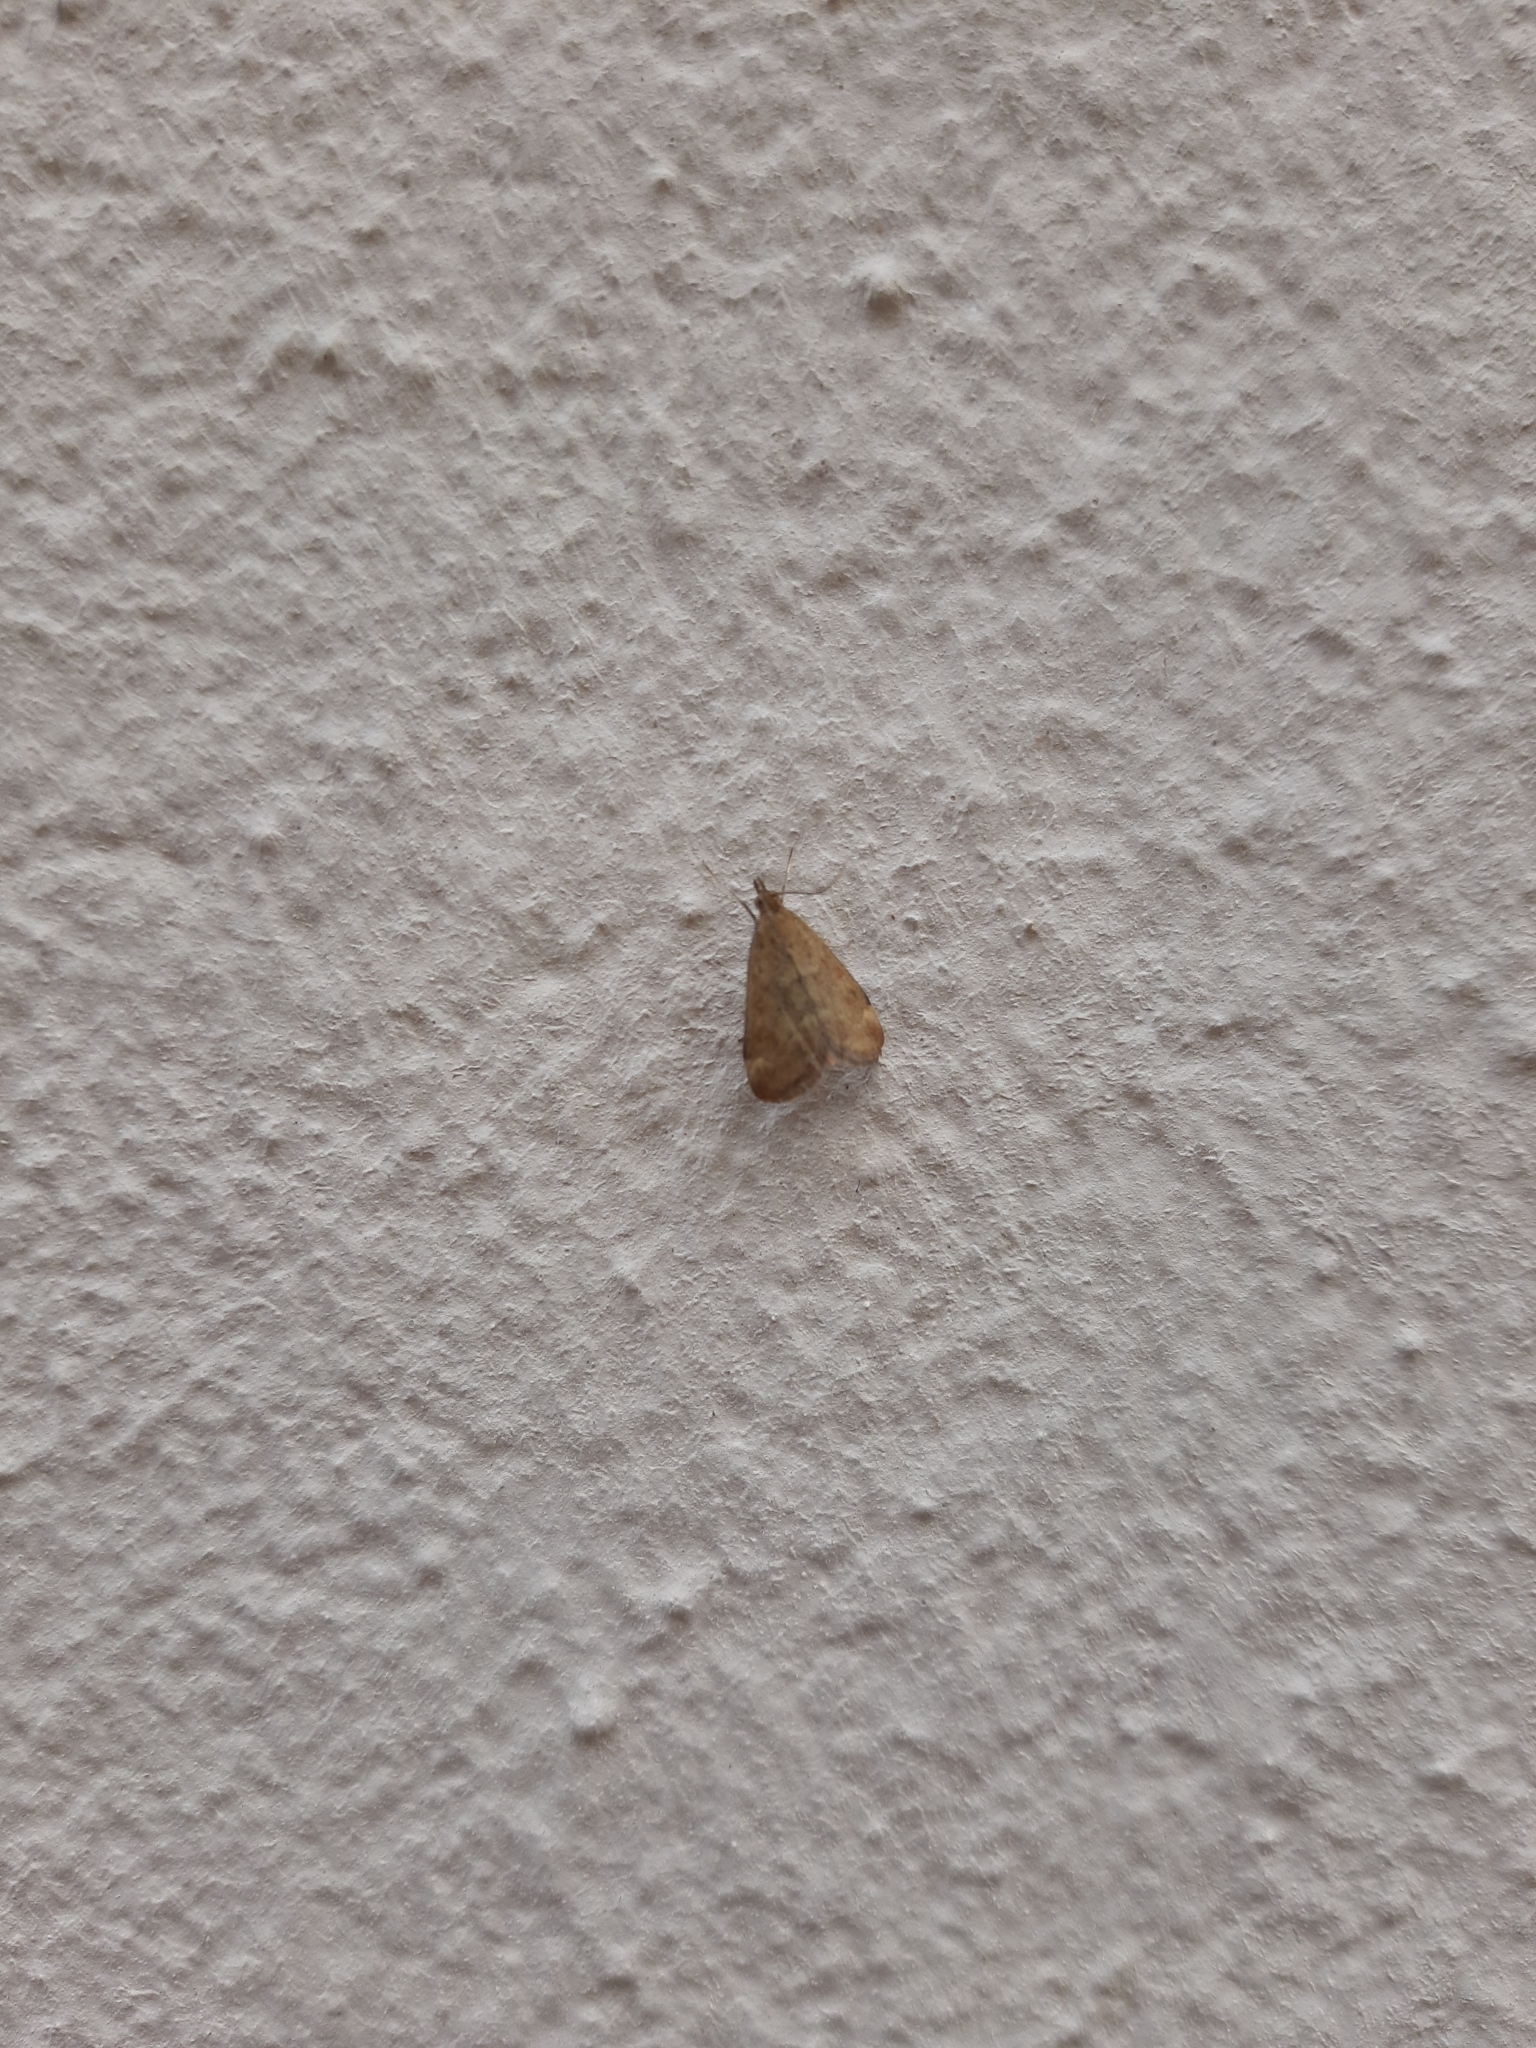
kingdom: Animalia
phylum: Arthropoda
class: Insecta
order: Lepidoptera
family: Crambidae
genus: Pyrausta
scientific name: Pyrausta despicata
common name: Straw-barred pearl
